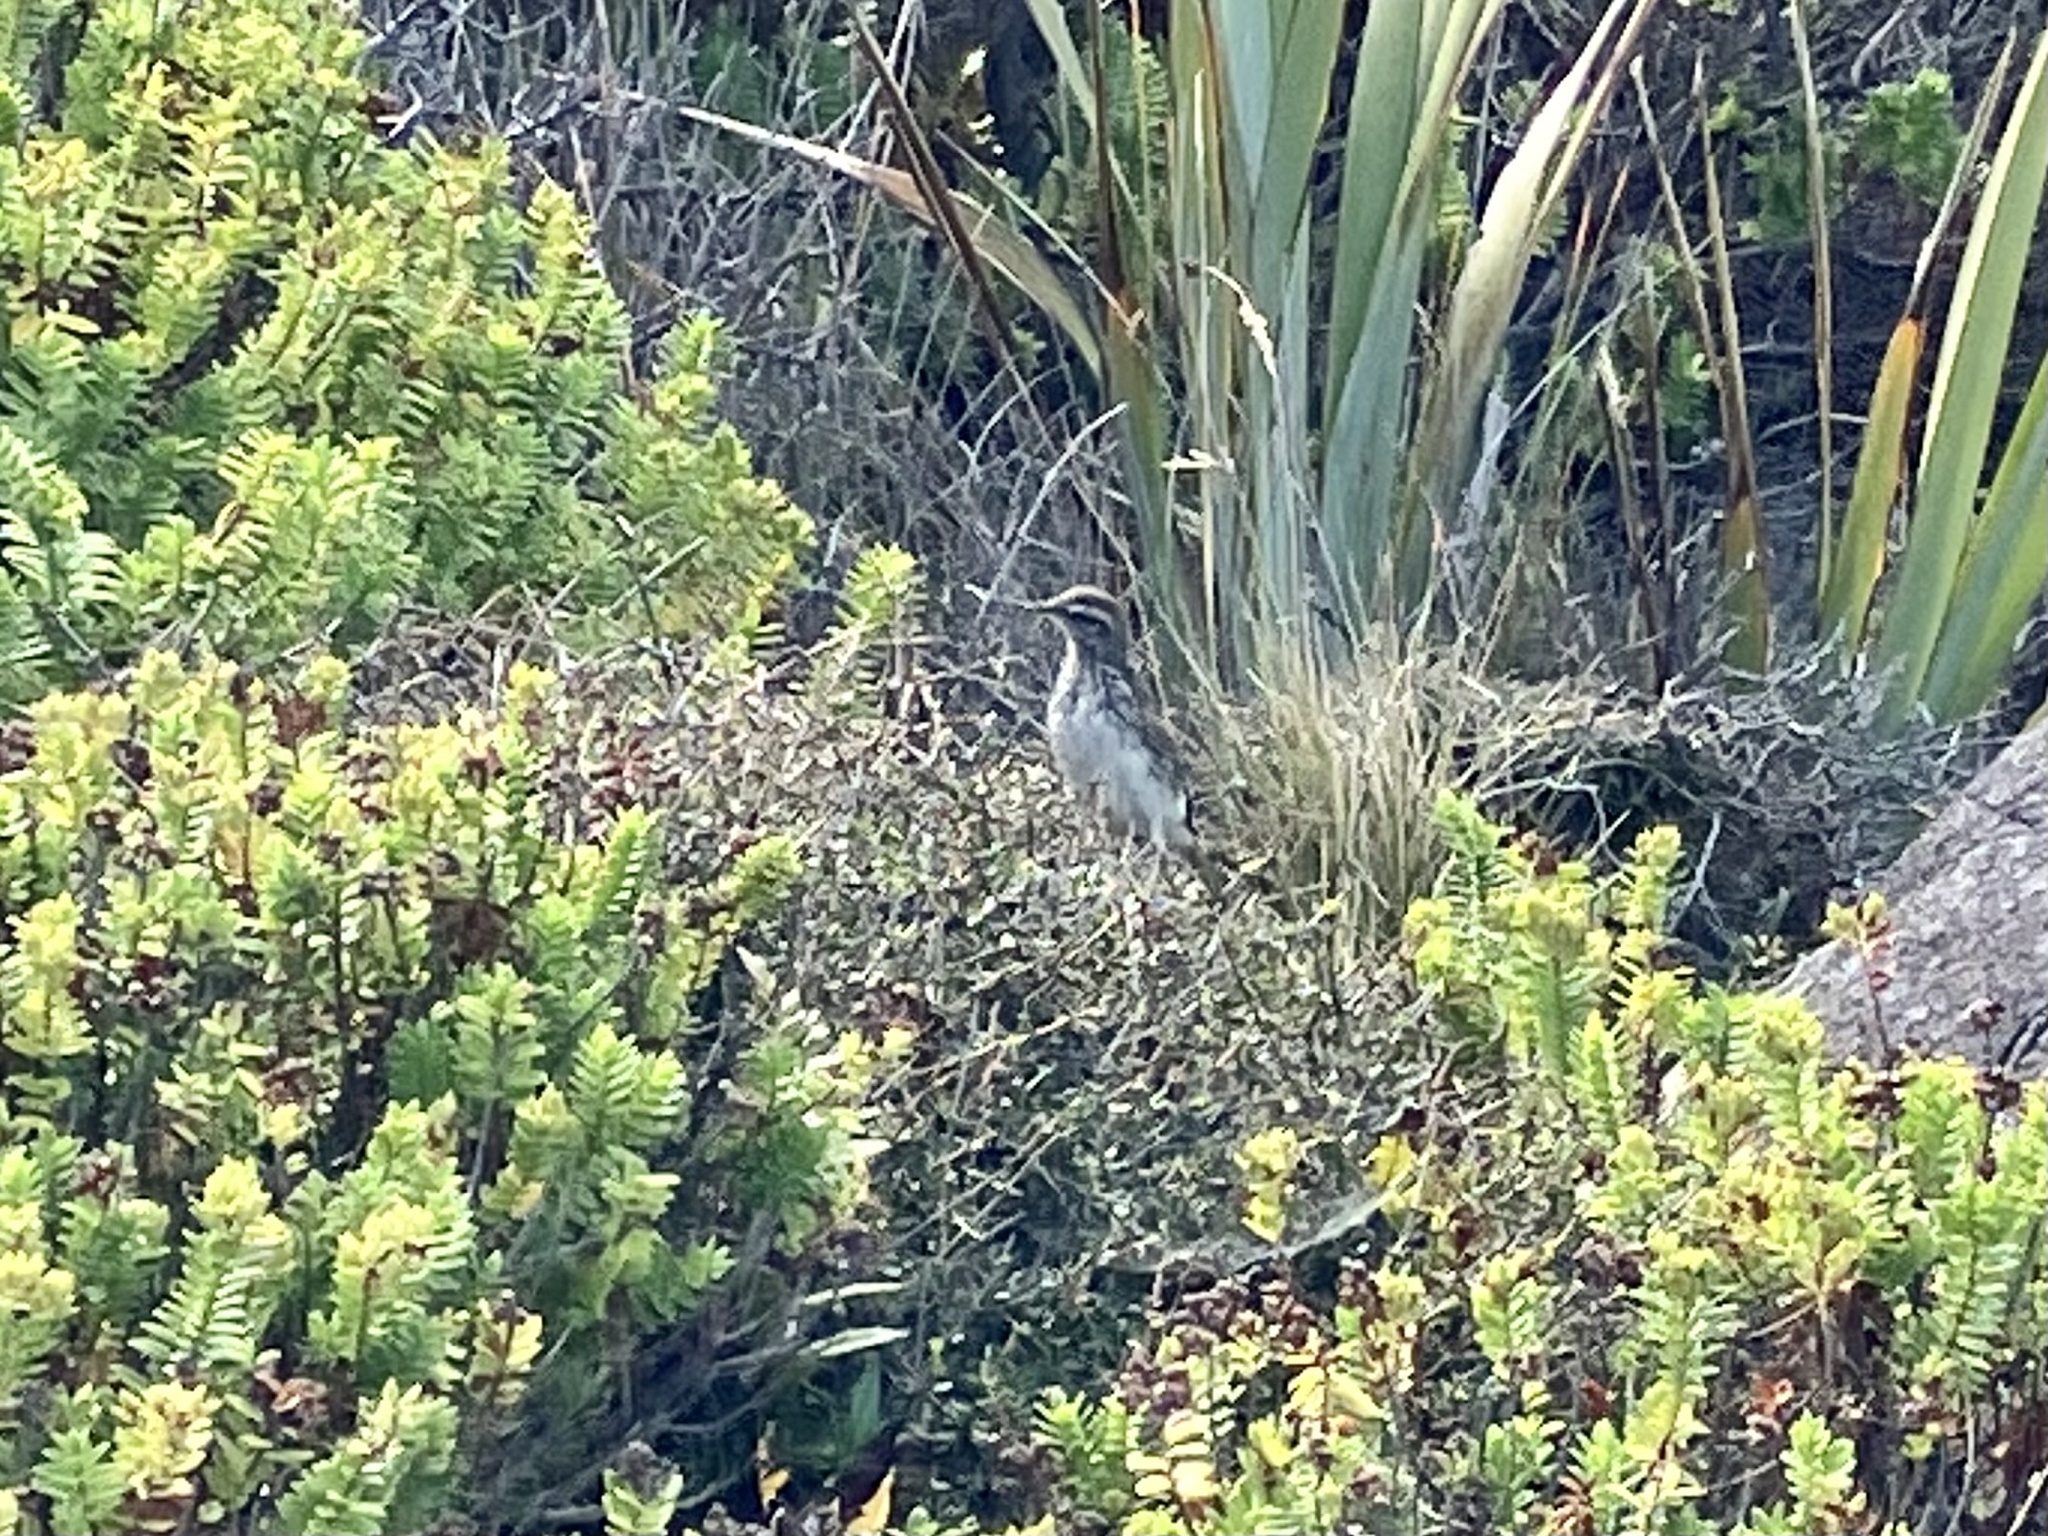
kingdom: Animalia
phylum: Chordata
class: Aves
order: Passeriformes
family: Motacillidae
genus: Anthus
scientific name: Anthus novaeseelandiae
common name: New zealand pipit
